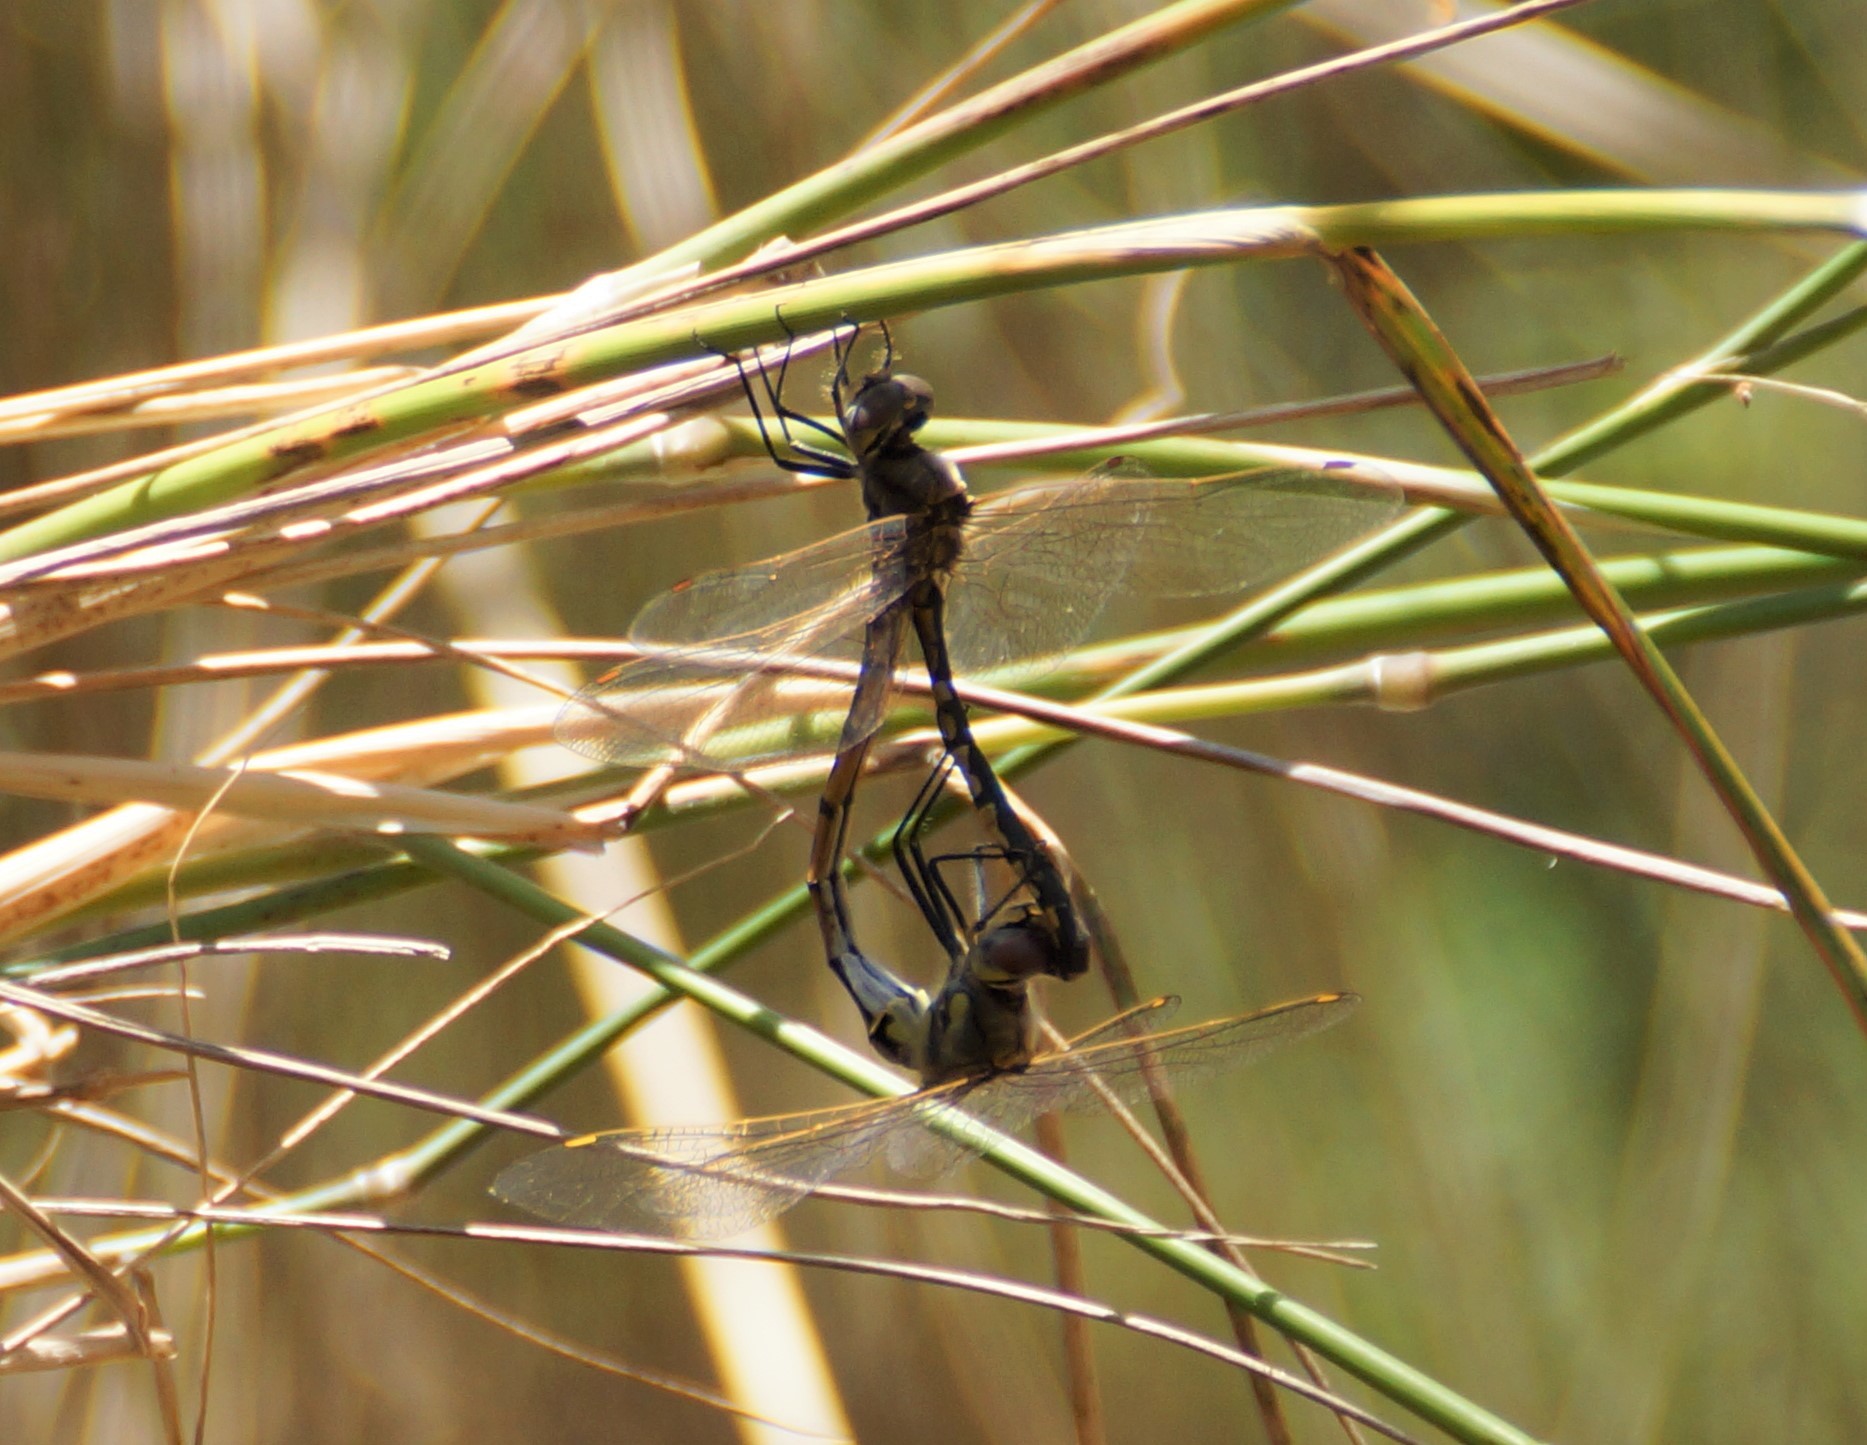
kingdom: Animalia
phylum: Arthropoda
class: Insecta
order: Odonata
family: Corduliidae
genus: Hemicordulia
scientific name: Hemicordulia tau
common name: Tau emerald
